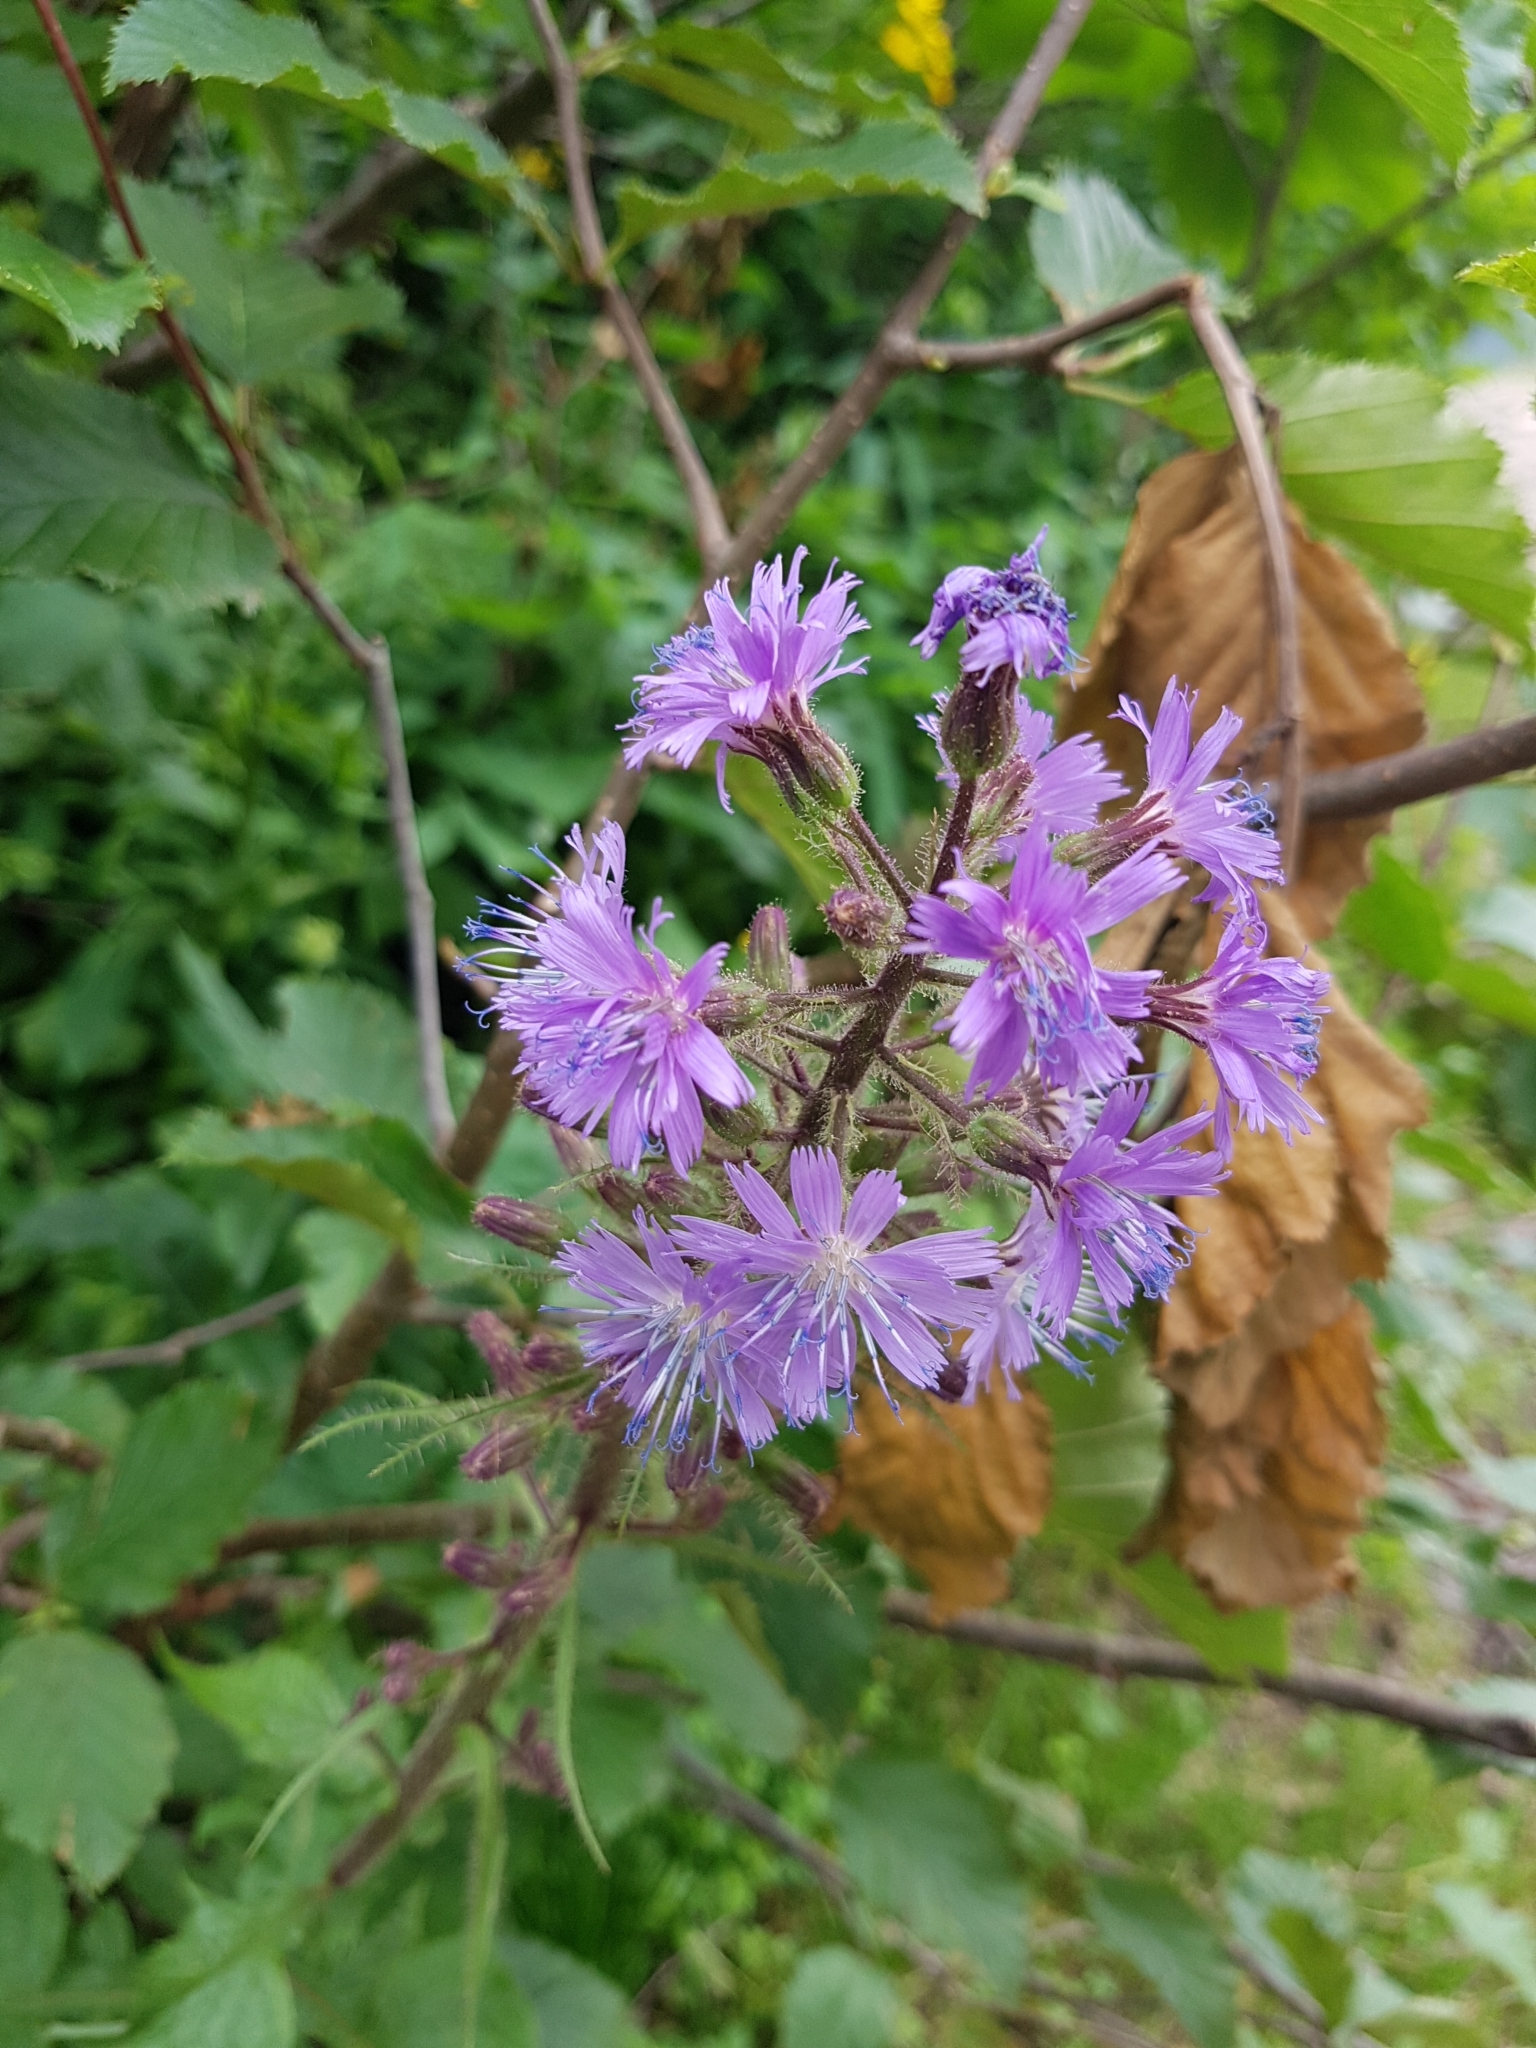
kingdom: Plantae
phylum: Tracheophyta
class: Magnoliopsida
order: Asterales
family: Asteraceae
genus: Cicerbita
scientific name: Cicerbita alpina
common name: Alpine blue-sow-thistle
